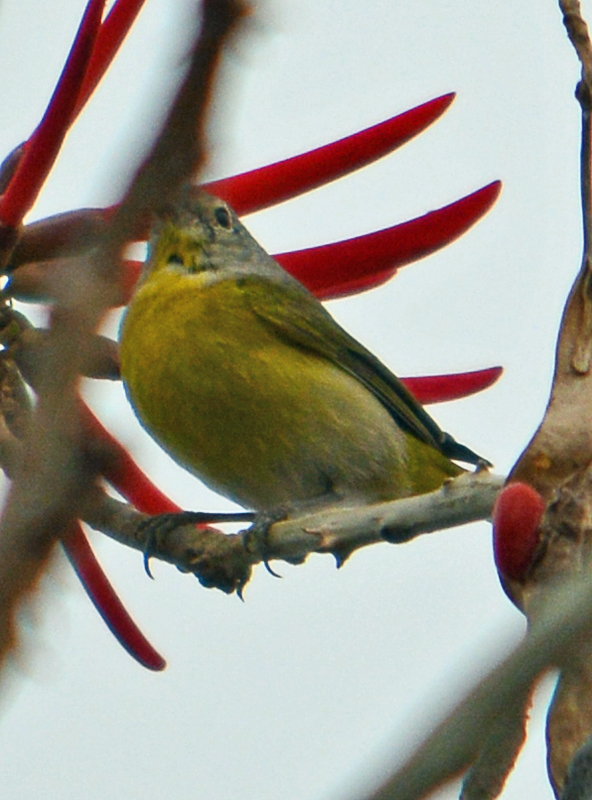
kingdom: Animalia
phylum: Chordata
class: Aves
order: Passeriformes
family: Parulidae
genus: Leiothlypis
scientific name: Leiothlypis ruficapilla
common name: Nashville warbler
